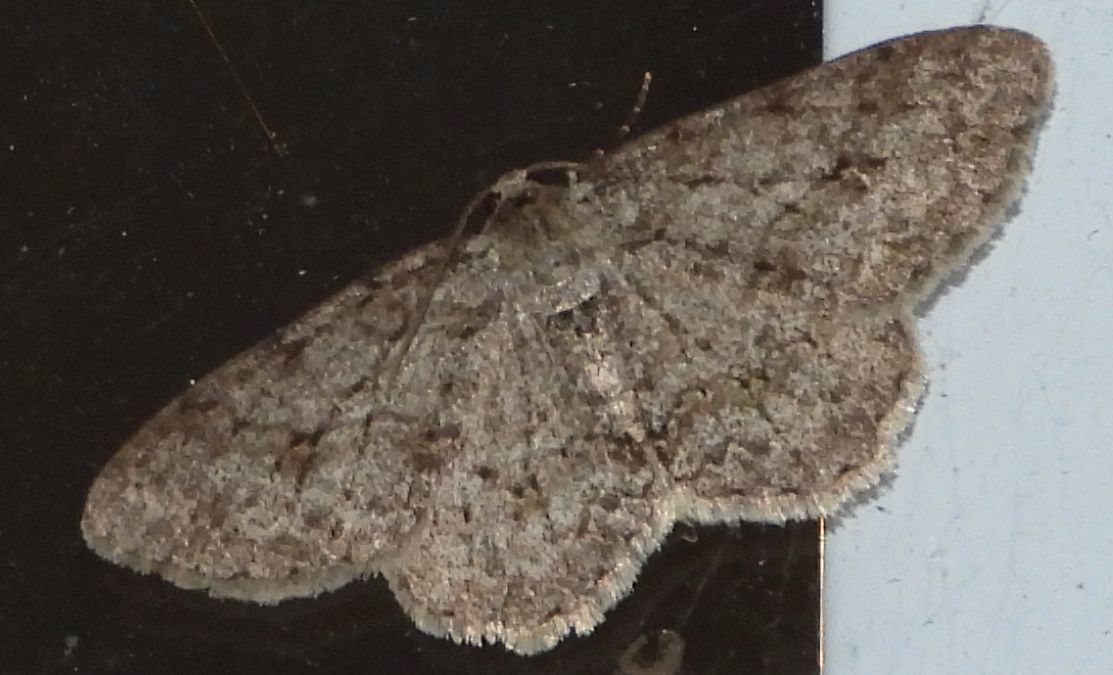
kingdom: Animalia
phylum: Arthropoda
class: Insecta
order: Lepidoptera
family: Geometridae
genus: Ectropis
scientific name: Ectropis crepuscularia
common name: Engrailed
